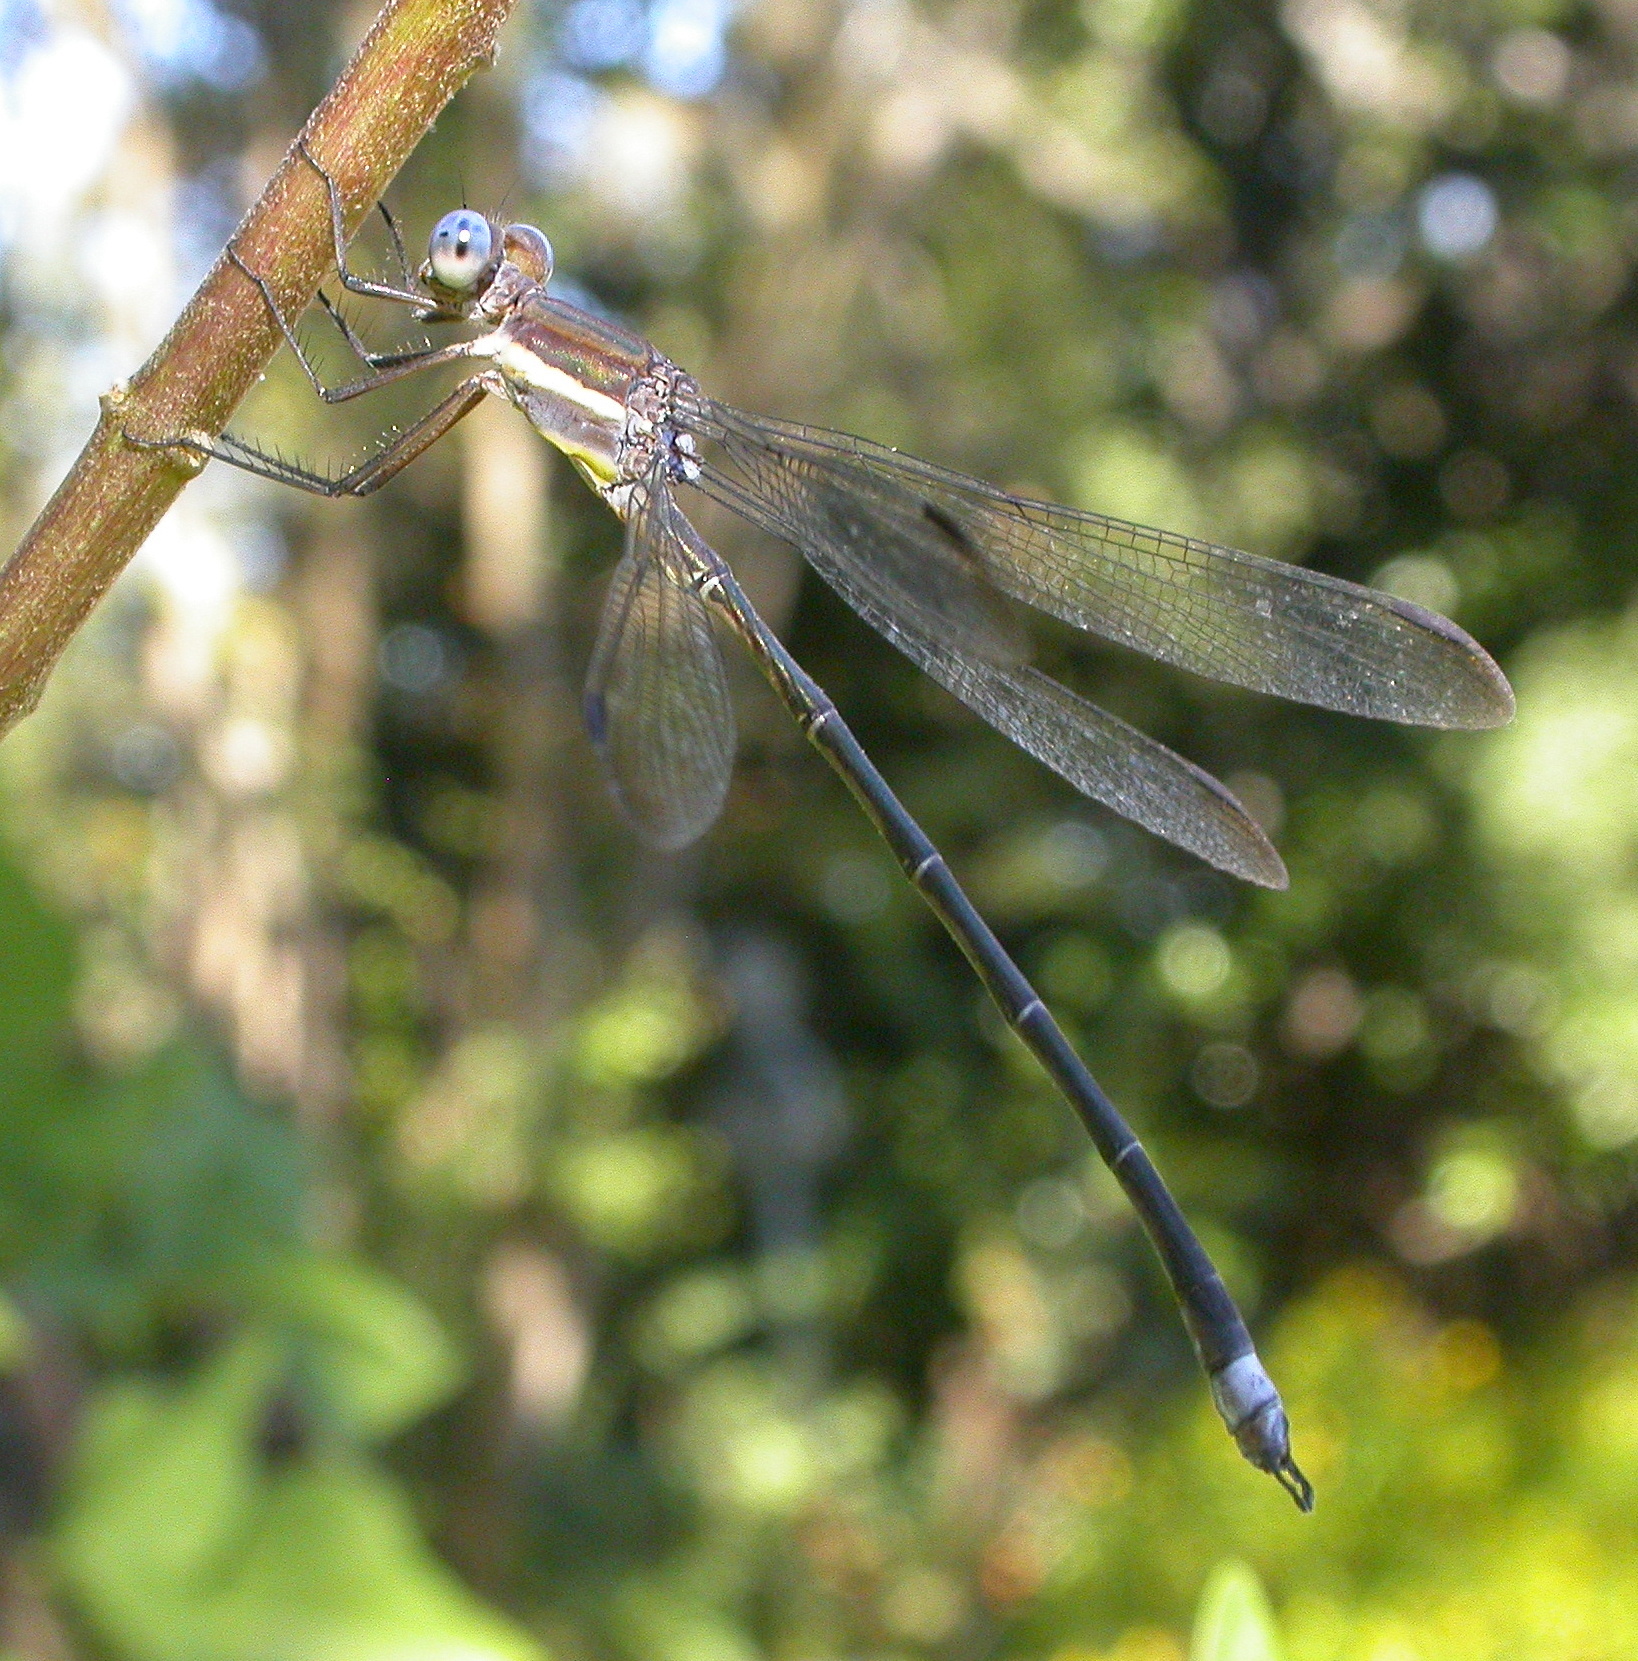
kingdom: Animalia
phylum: Arthropoda
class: Insecta
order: Odonata
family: Lestidae
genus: Archilestes
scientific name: Archilestes grandis
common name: Great spreadwing
